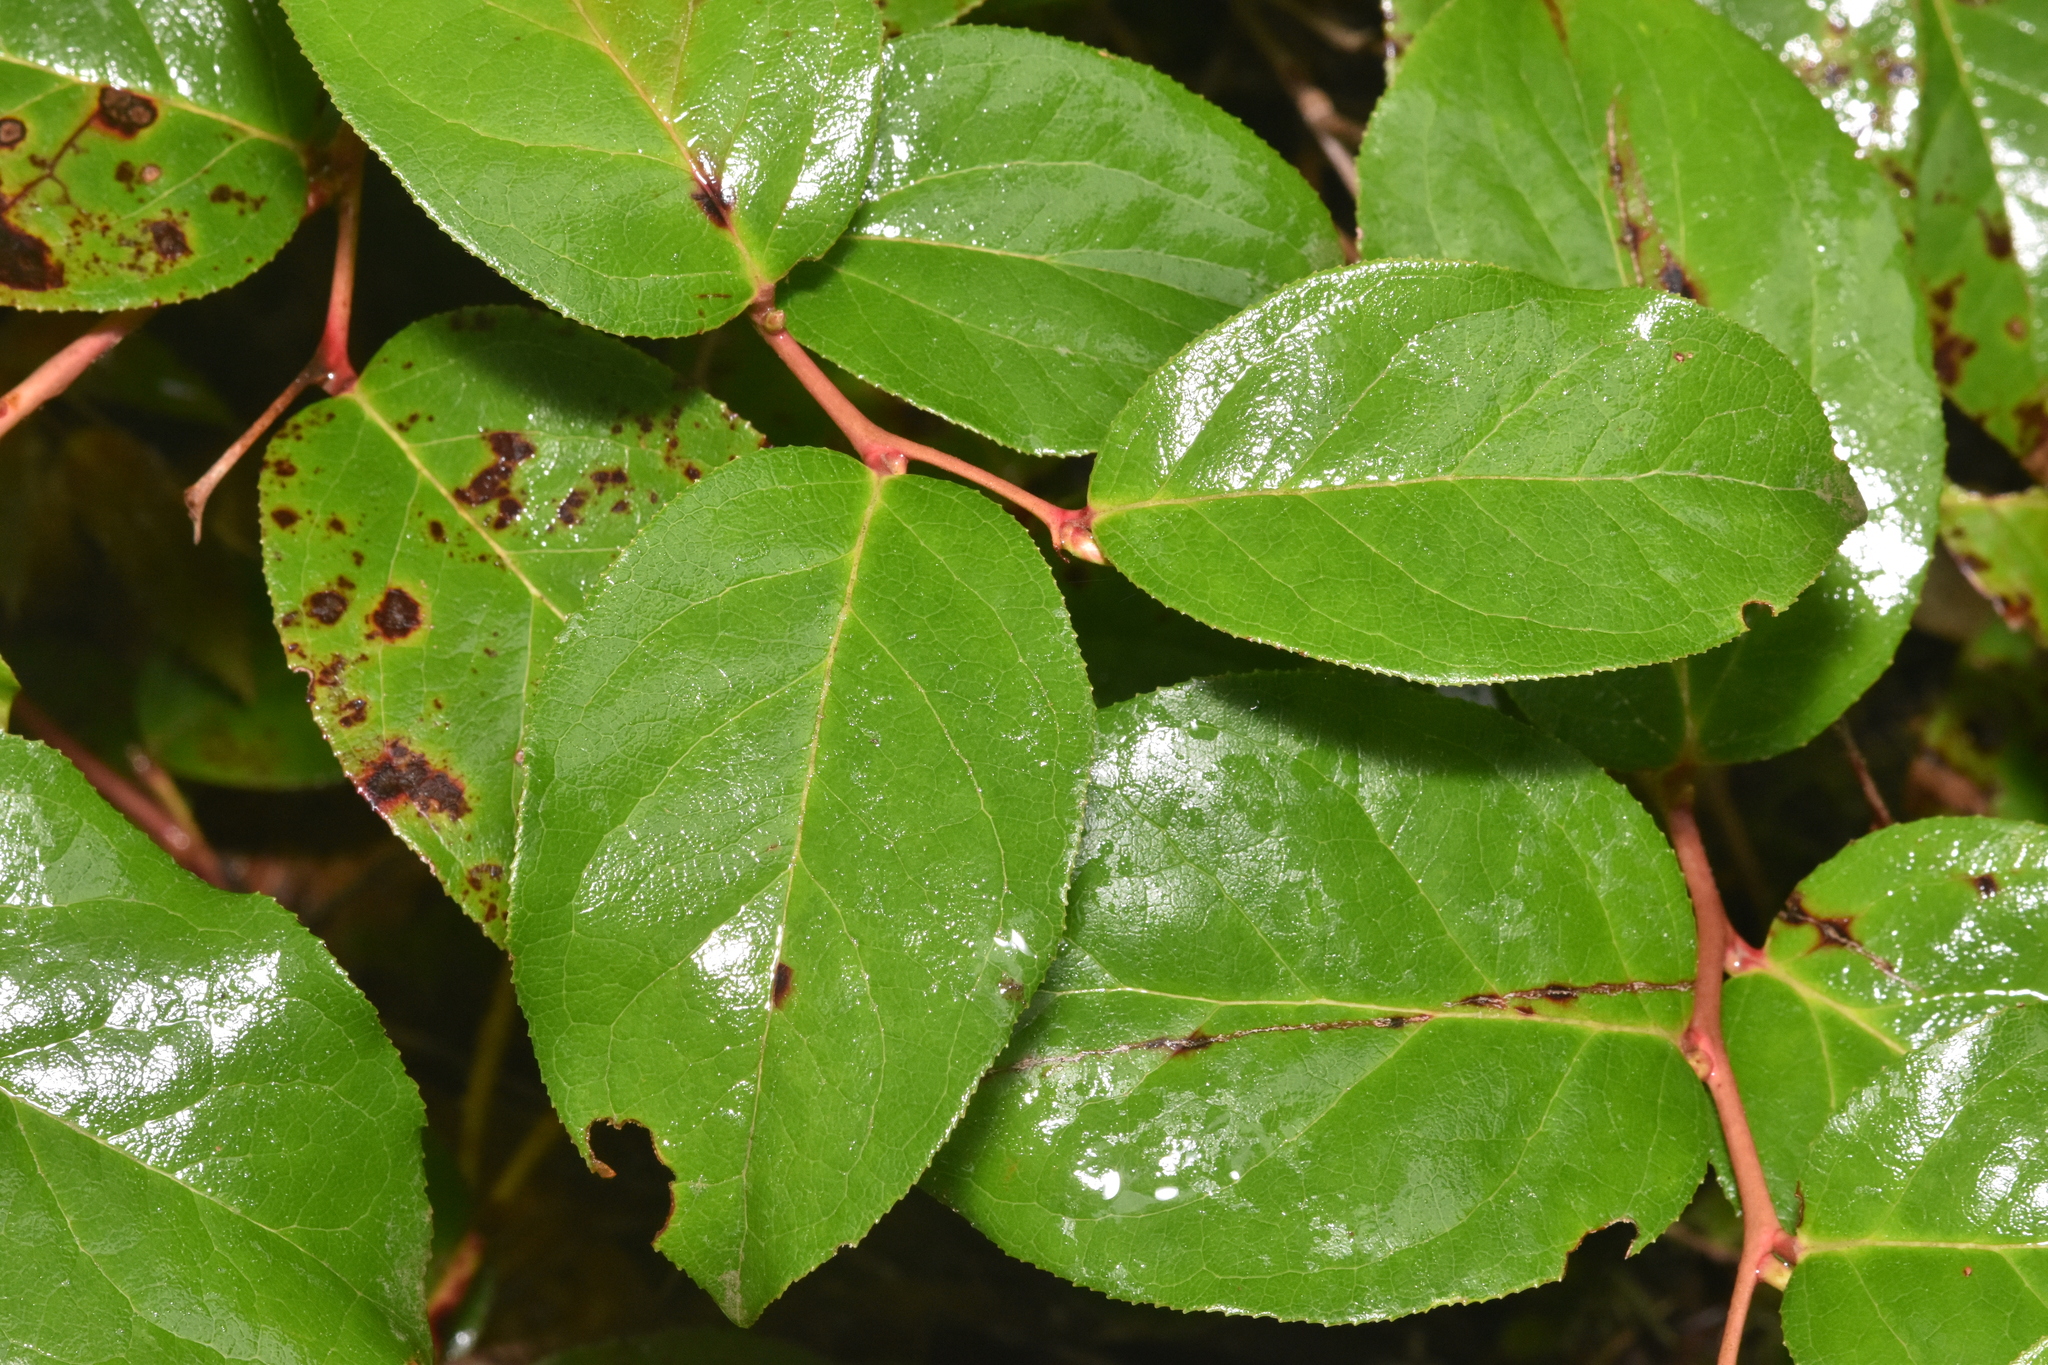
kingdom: Plantae
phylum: Tracheophyta
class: Magnoliopsida
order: Ericales
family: Ericaceae
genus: Gaultheria
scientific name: Gaultheria shallon
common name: Shallon
